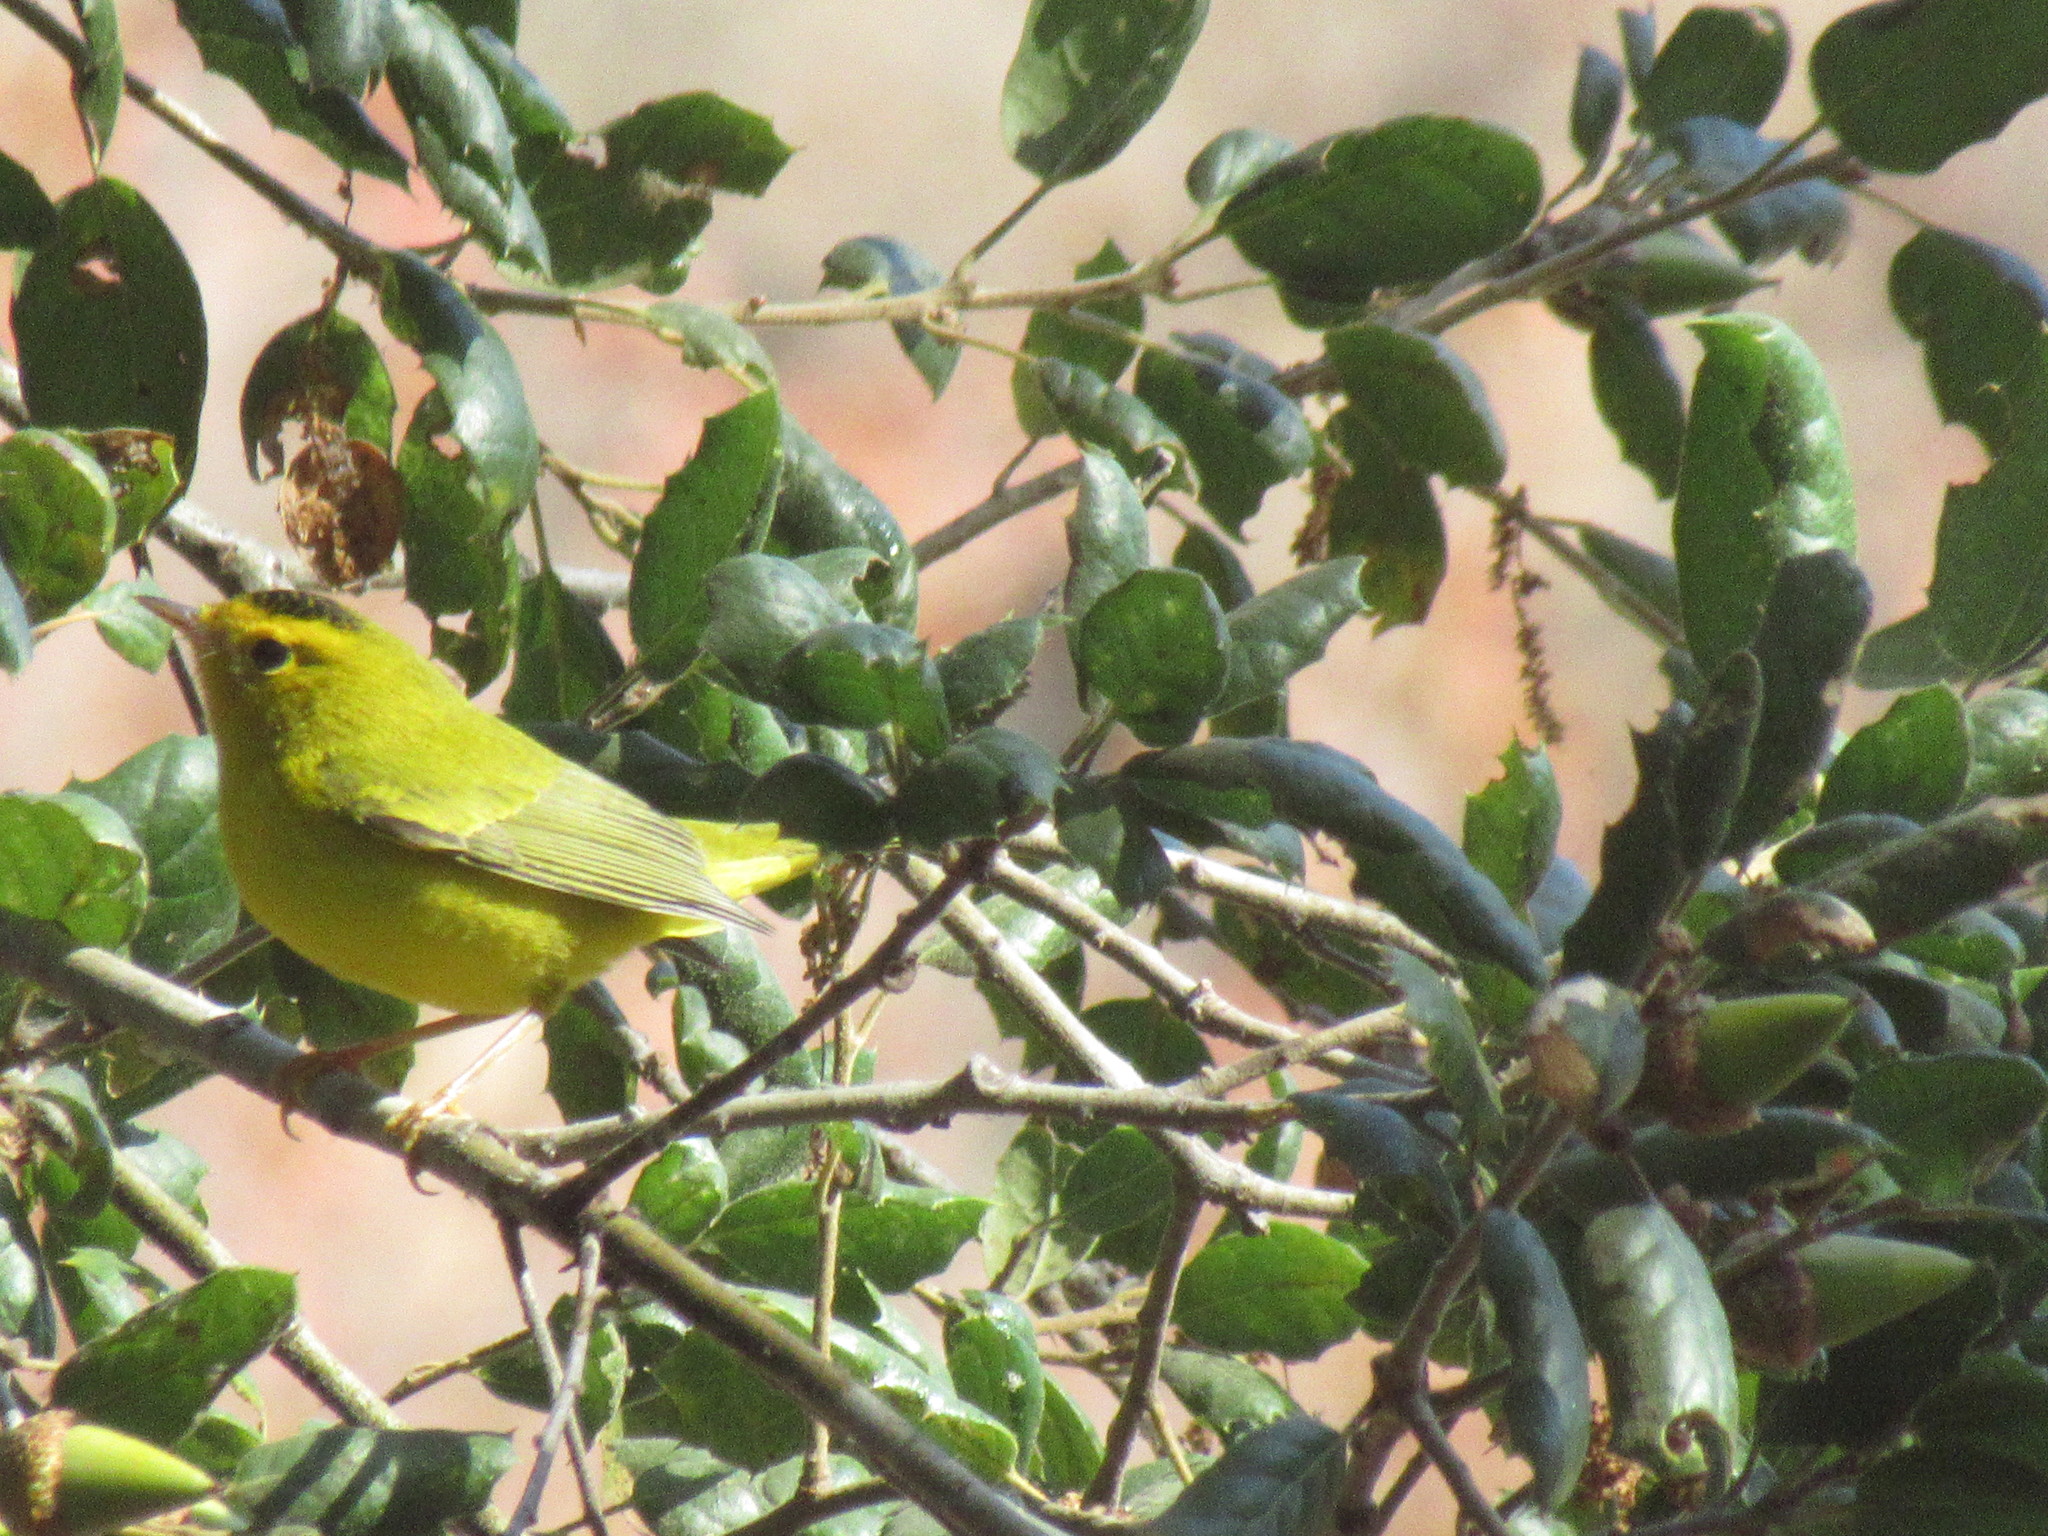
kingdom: Animalia
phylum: Chordata
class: Aves
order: Passeriformes
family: Parulidae
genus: Cardellina
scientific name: Cardellina pusilla
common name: Wilson's warbler
